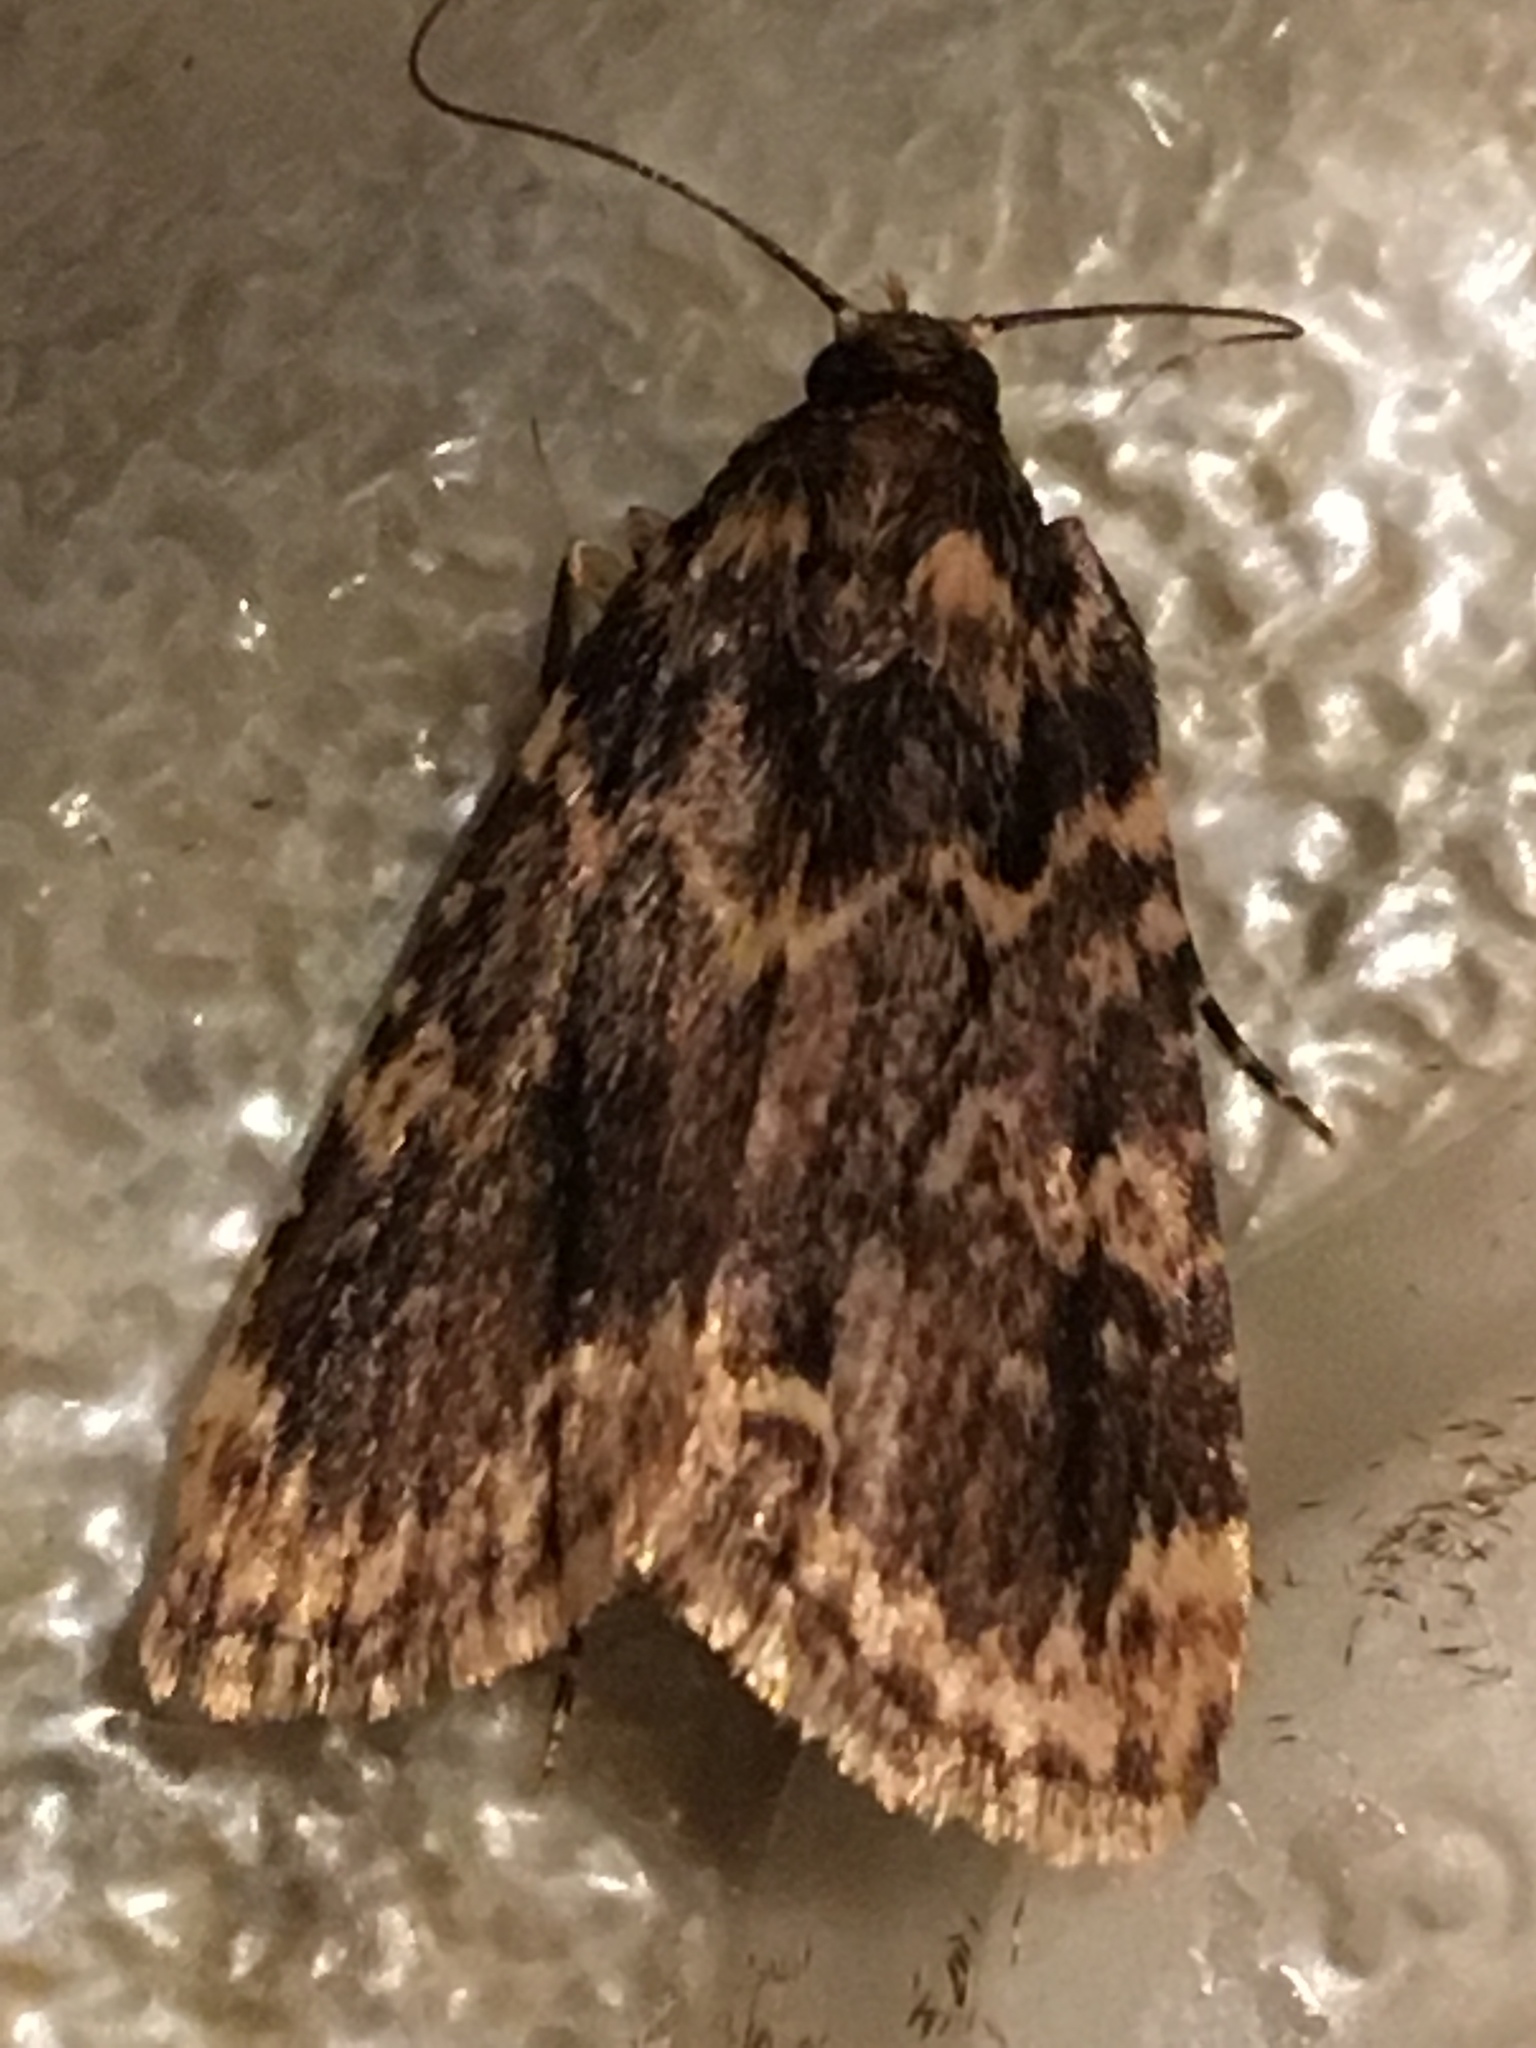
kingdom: Animalia
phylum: Arthropoda
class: Insecta
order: Lepidoptera
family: Pyralidae
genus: Aglossa
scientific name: Aglossa cuprina
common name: Grease moth
